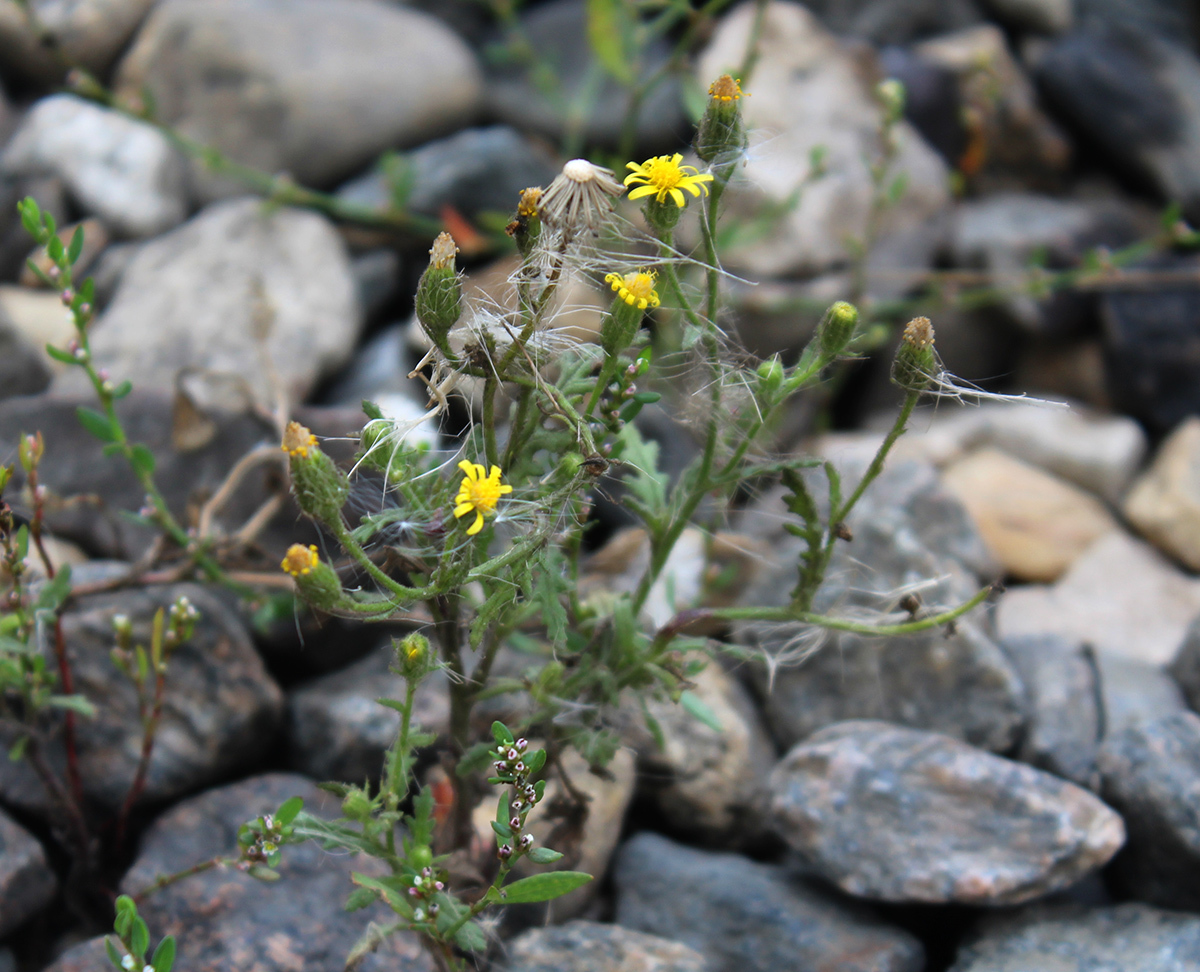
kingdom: Plantae
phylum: Tracheophyta
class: Magnoliopsida
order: Asterales
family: Asteraceae
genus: Senecio
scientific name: Senecio viscosus
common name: Sticky groundsel
